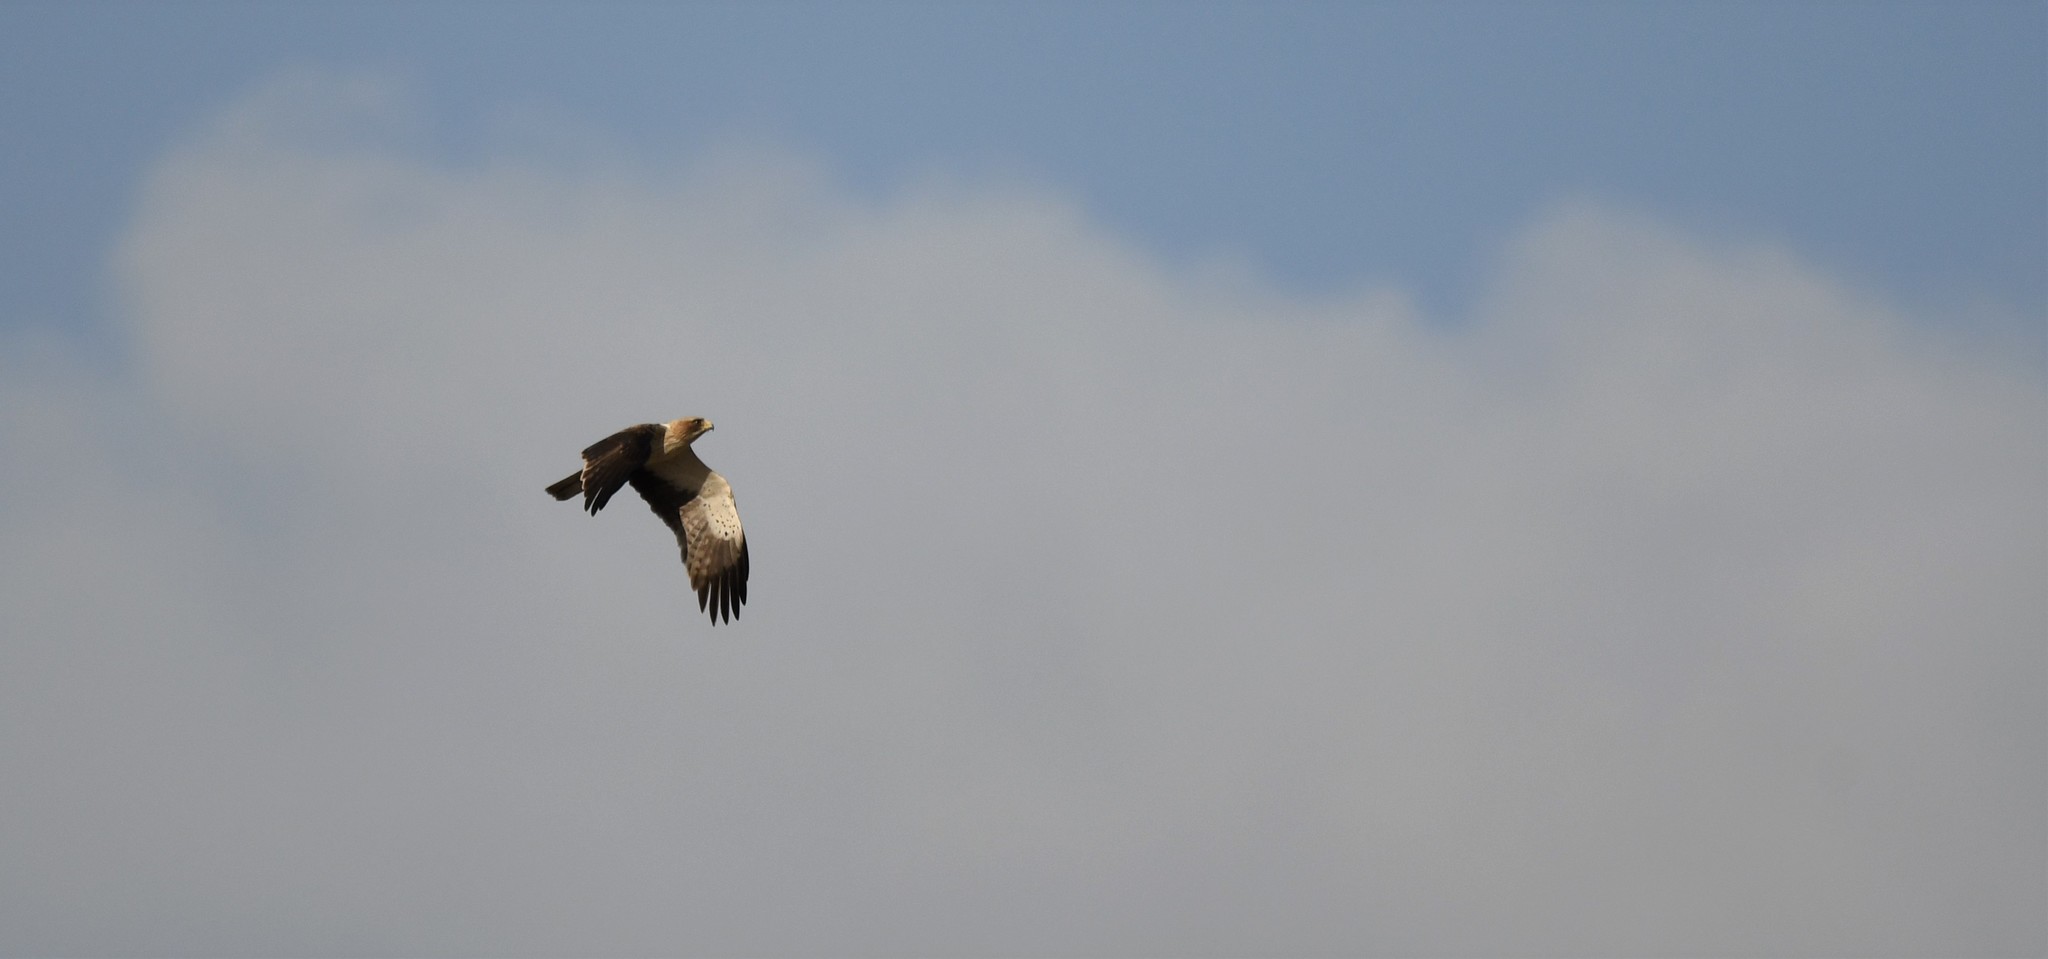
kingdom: Animalia
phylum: Chordata
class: Aves
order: Accipitriformes
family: Accipitridae
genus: Hieraaetus
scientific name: Hieraaetus pennatus
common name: Booted eagle
